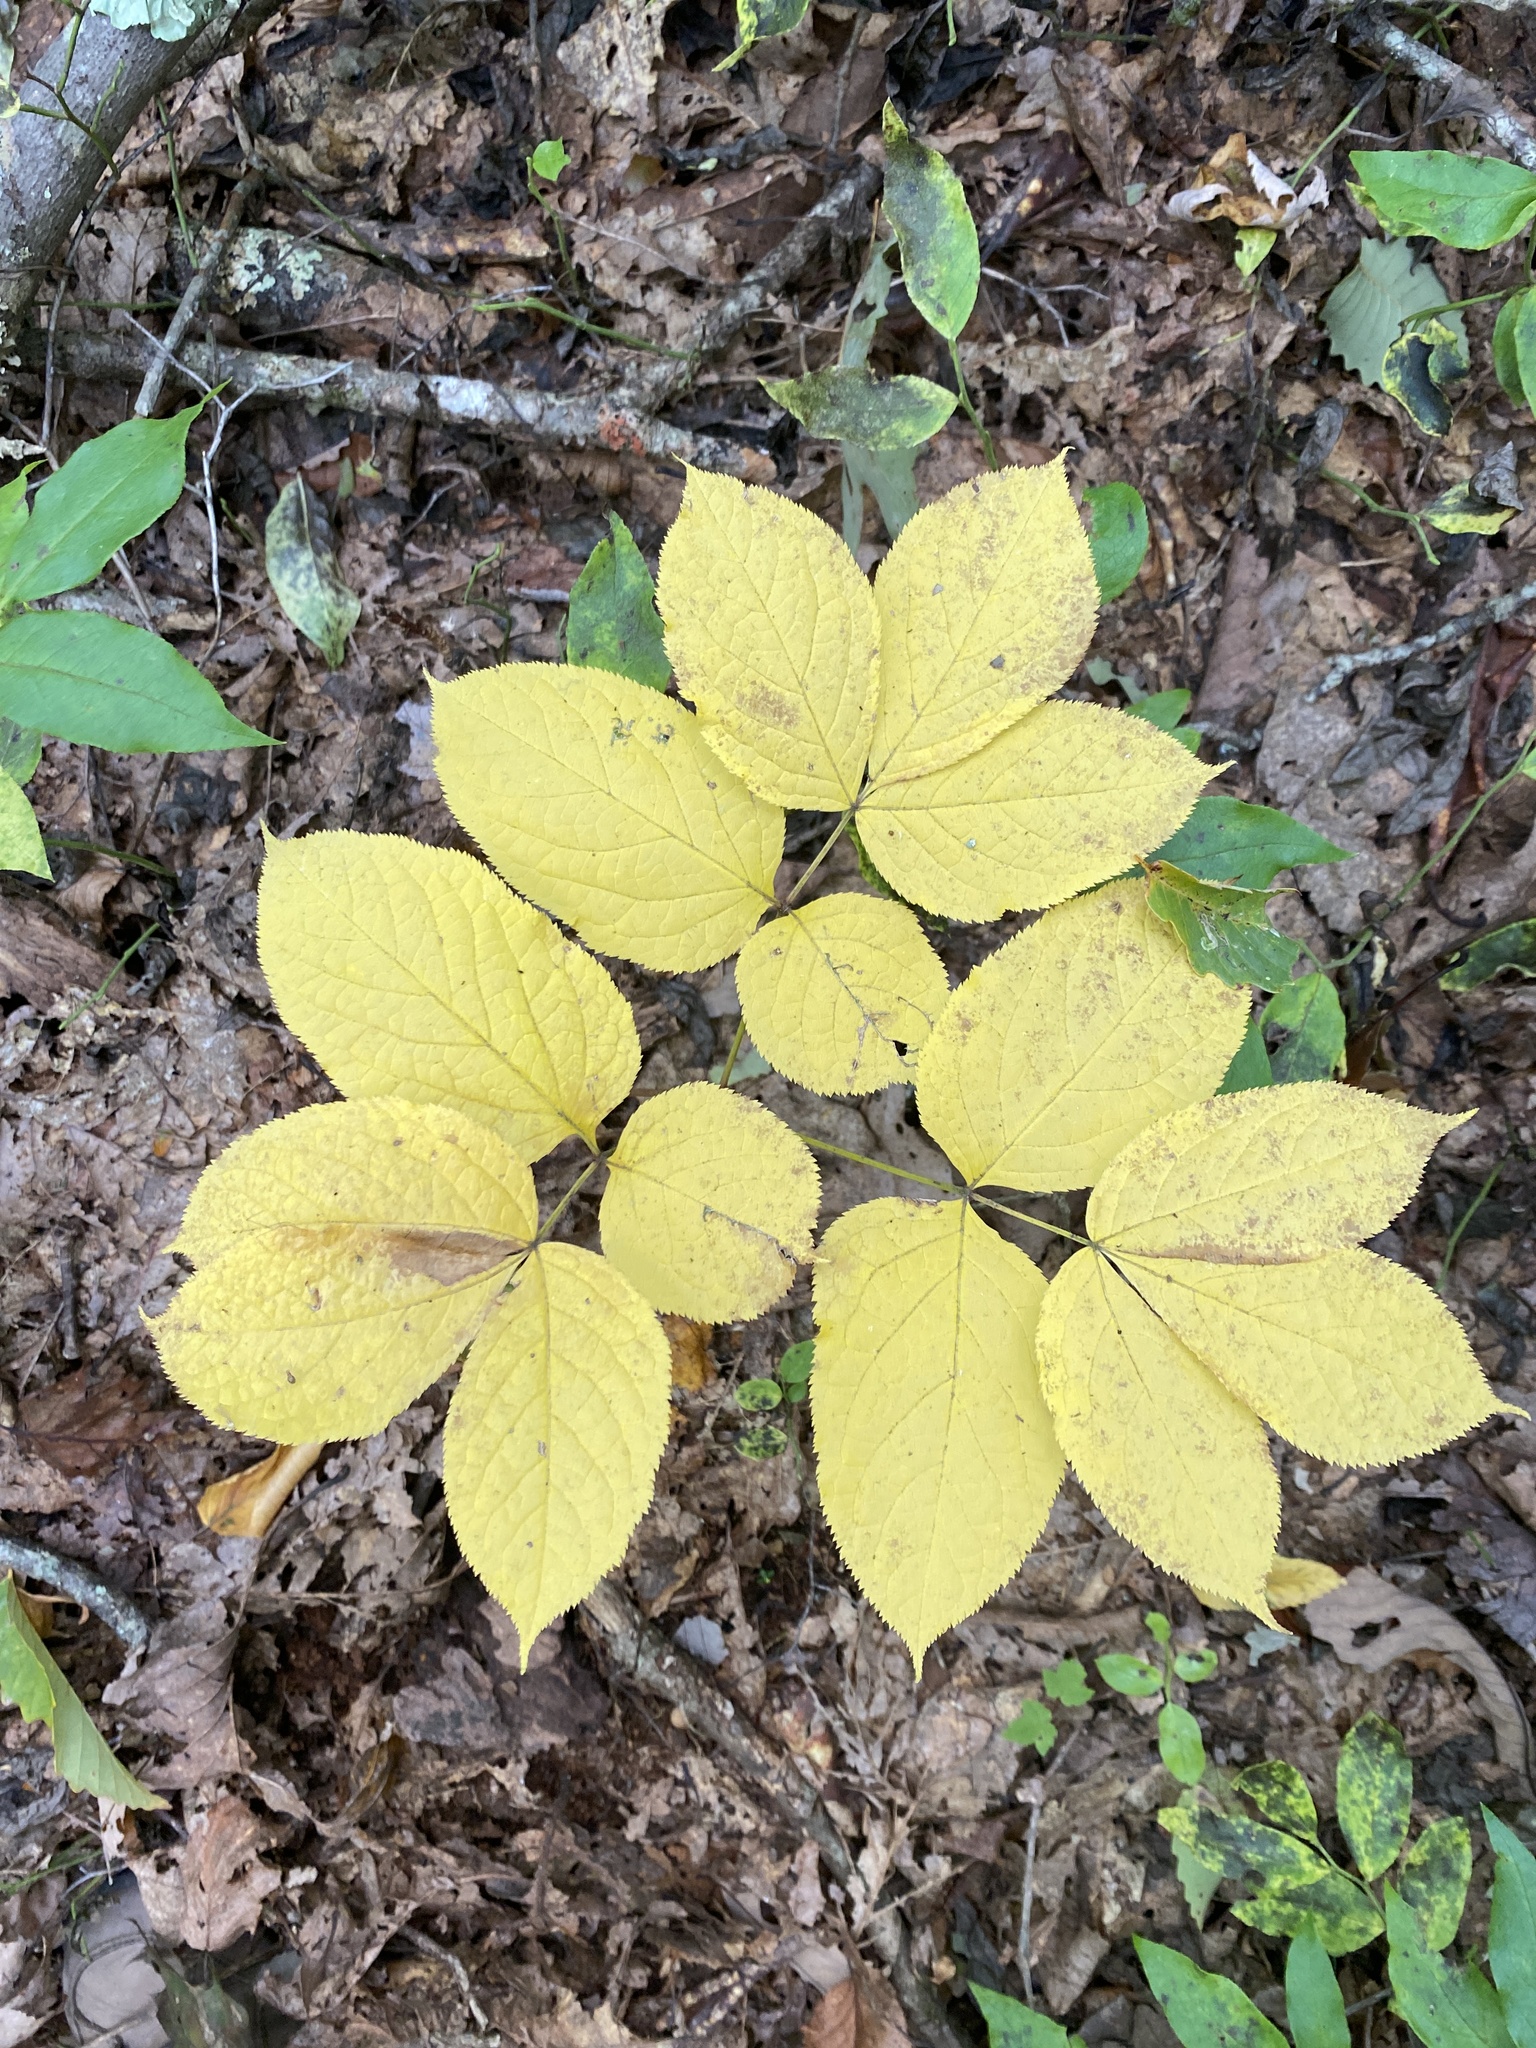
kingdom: Plantae
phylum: Tracheophyta
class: Magnoliopsida
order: Apiales
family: Araliaceae
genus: Aralia
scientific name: Aralia nudicaulis
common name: Wild sarsaparilla
